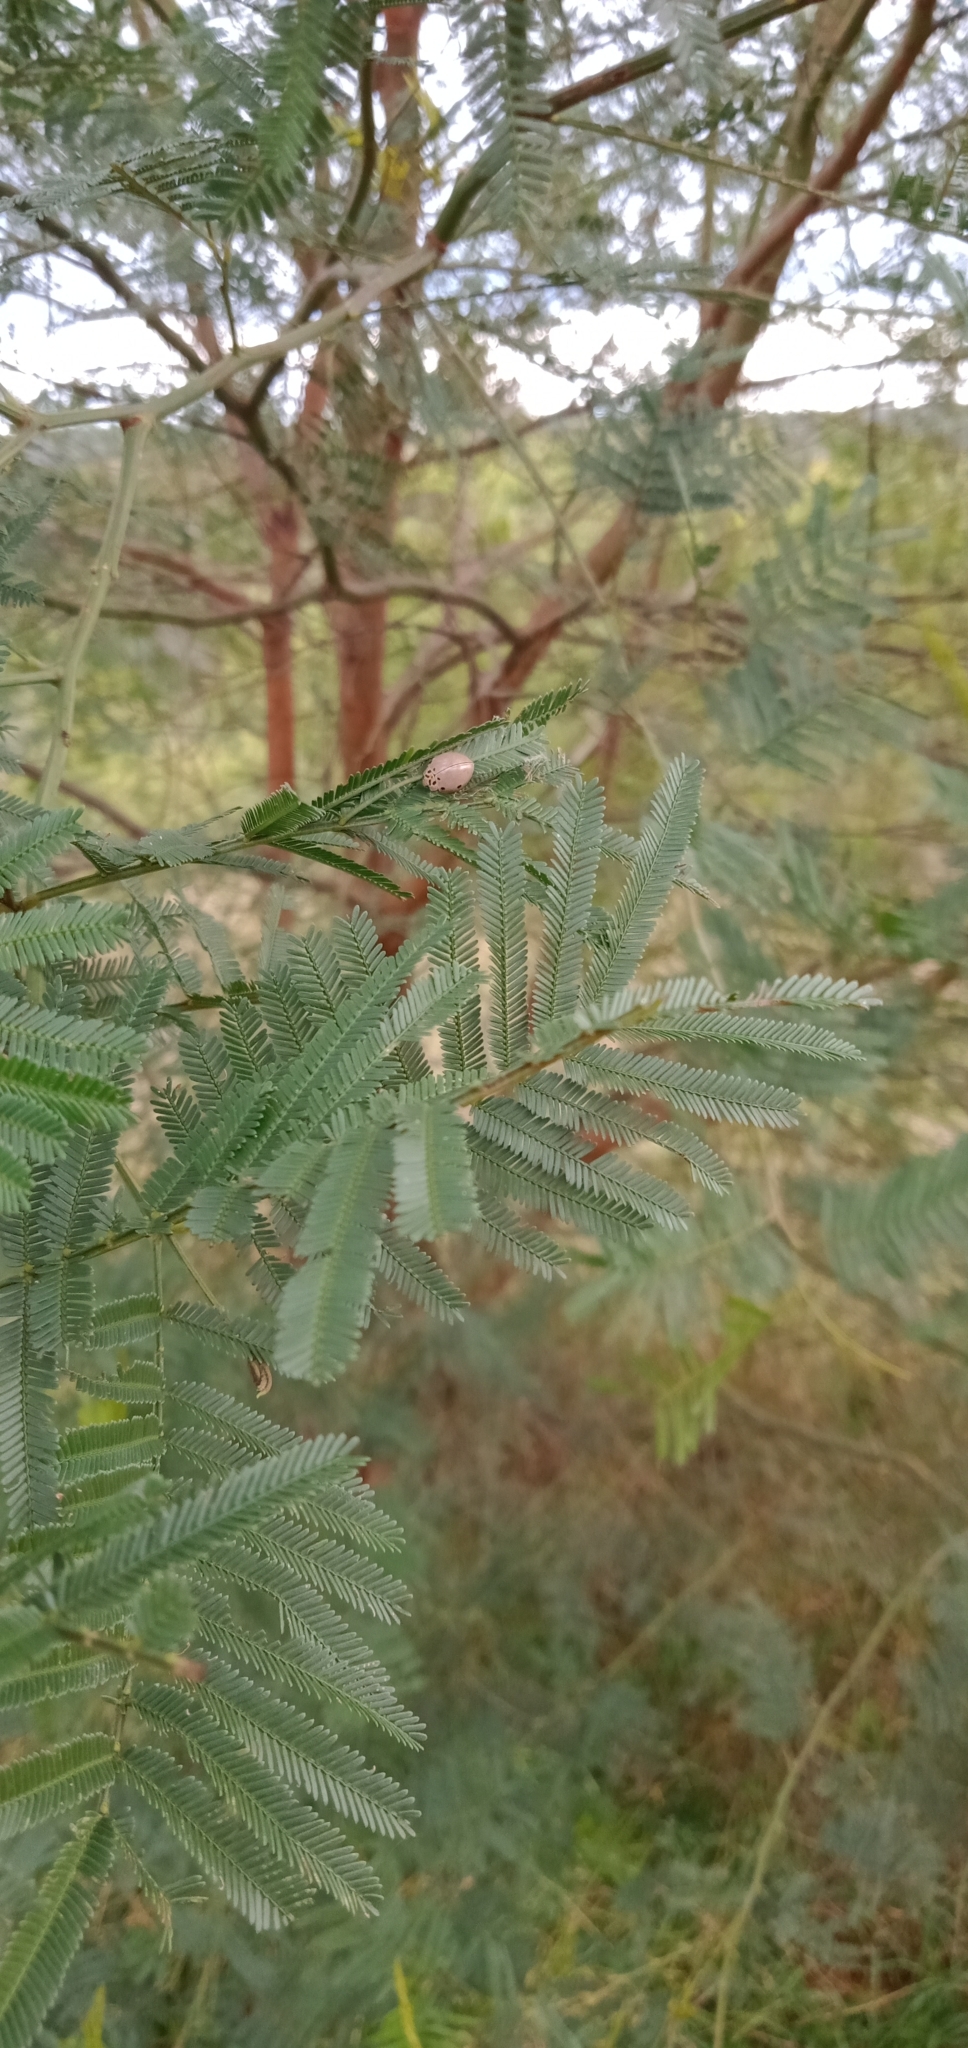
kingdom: Animalia
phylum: Arthropoda
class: Insecta
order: Coleoptera
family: Coccinellidae
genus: Archegleis
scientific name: Archegleis
